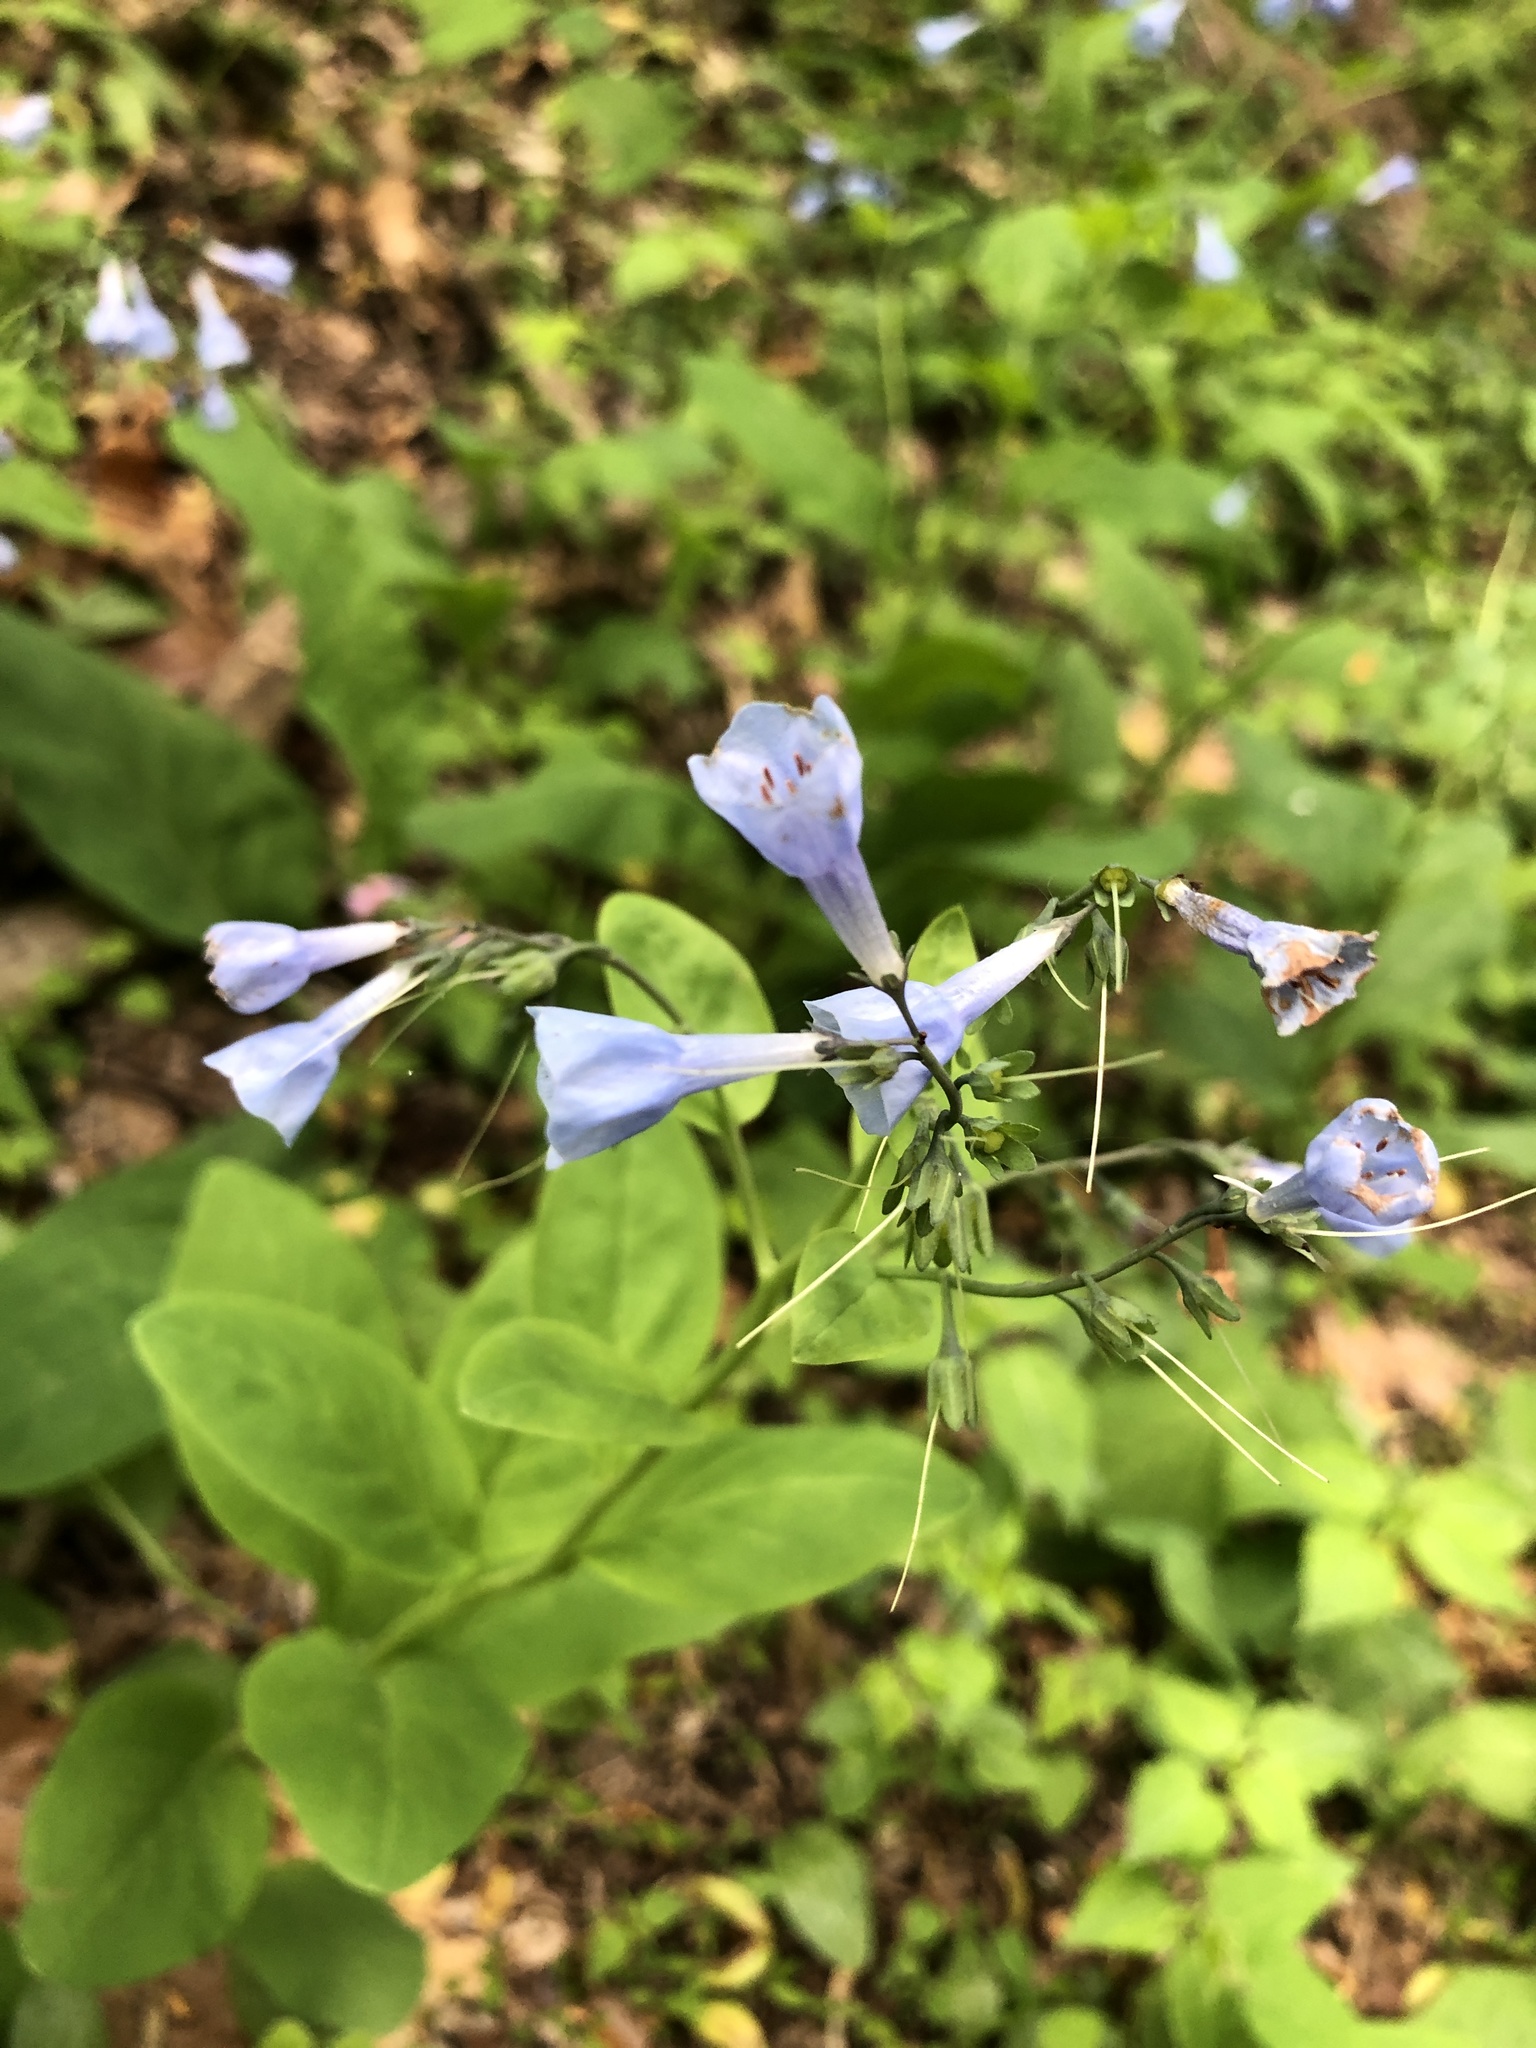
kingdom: Plantae
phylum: Tracheophyta
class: Magnoliopsida
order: Boraginales
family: Boraginaceae
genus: Mertensia
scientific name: Mertensia virginica
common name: Virginia bluebells
